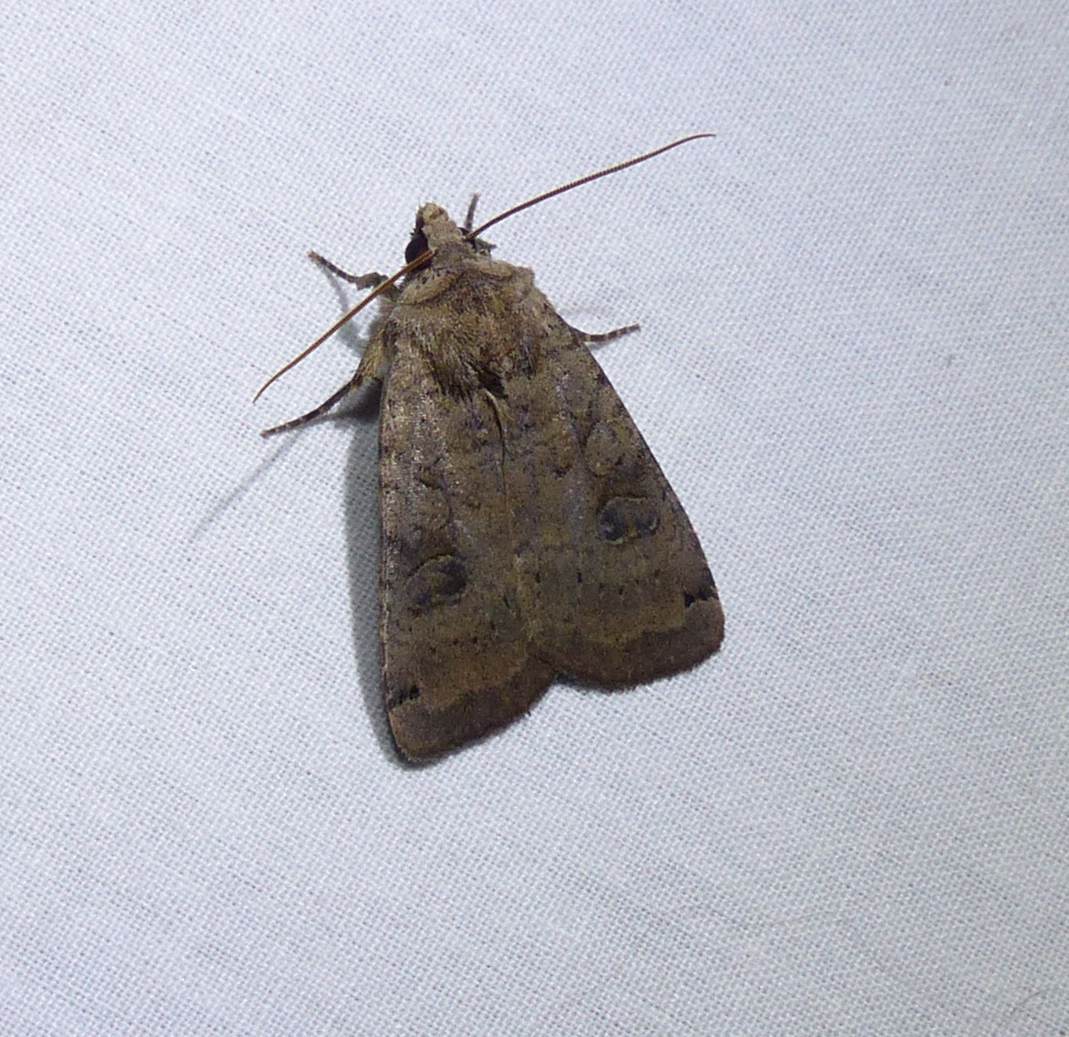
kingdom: Animalia
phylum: Arthropoda
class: Insecta
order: Lepidoptera
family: Noctuidae
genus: Xestia
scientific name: Xestia smithii
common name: Smith's dart
